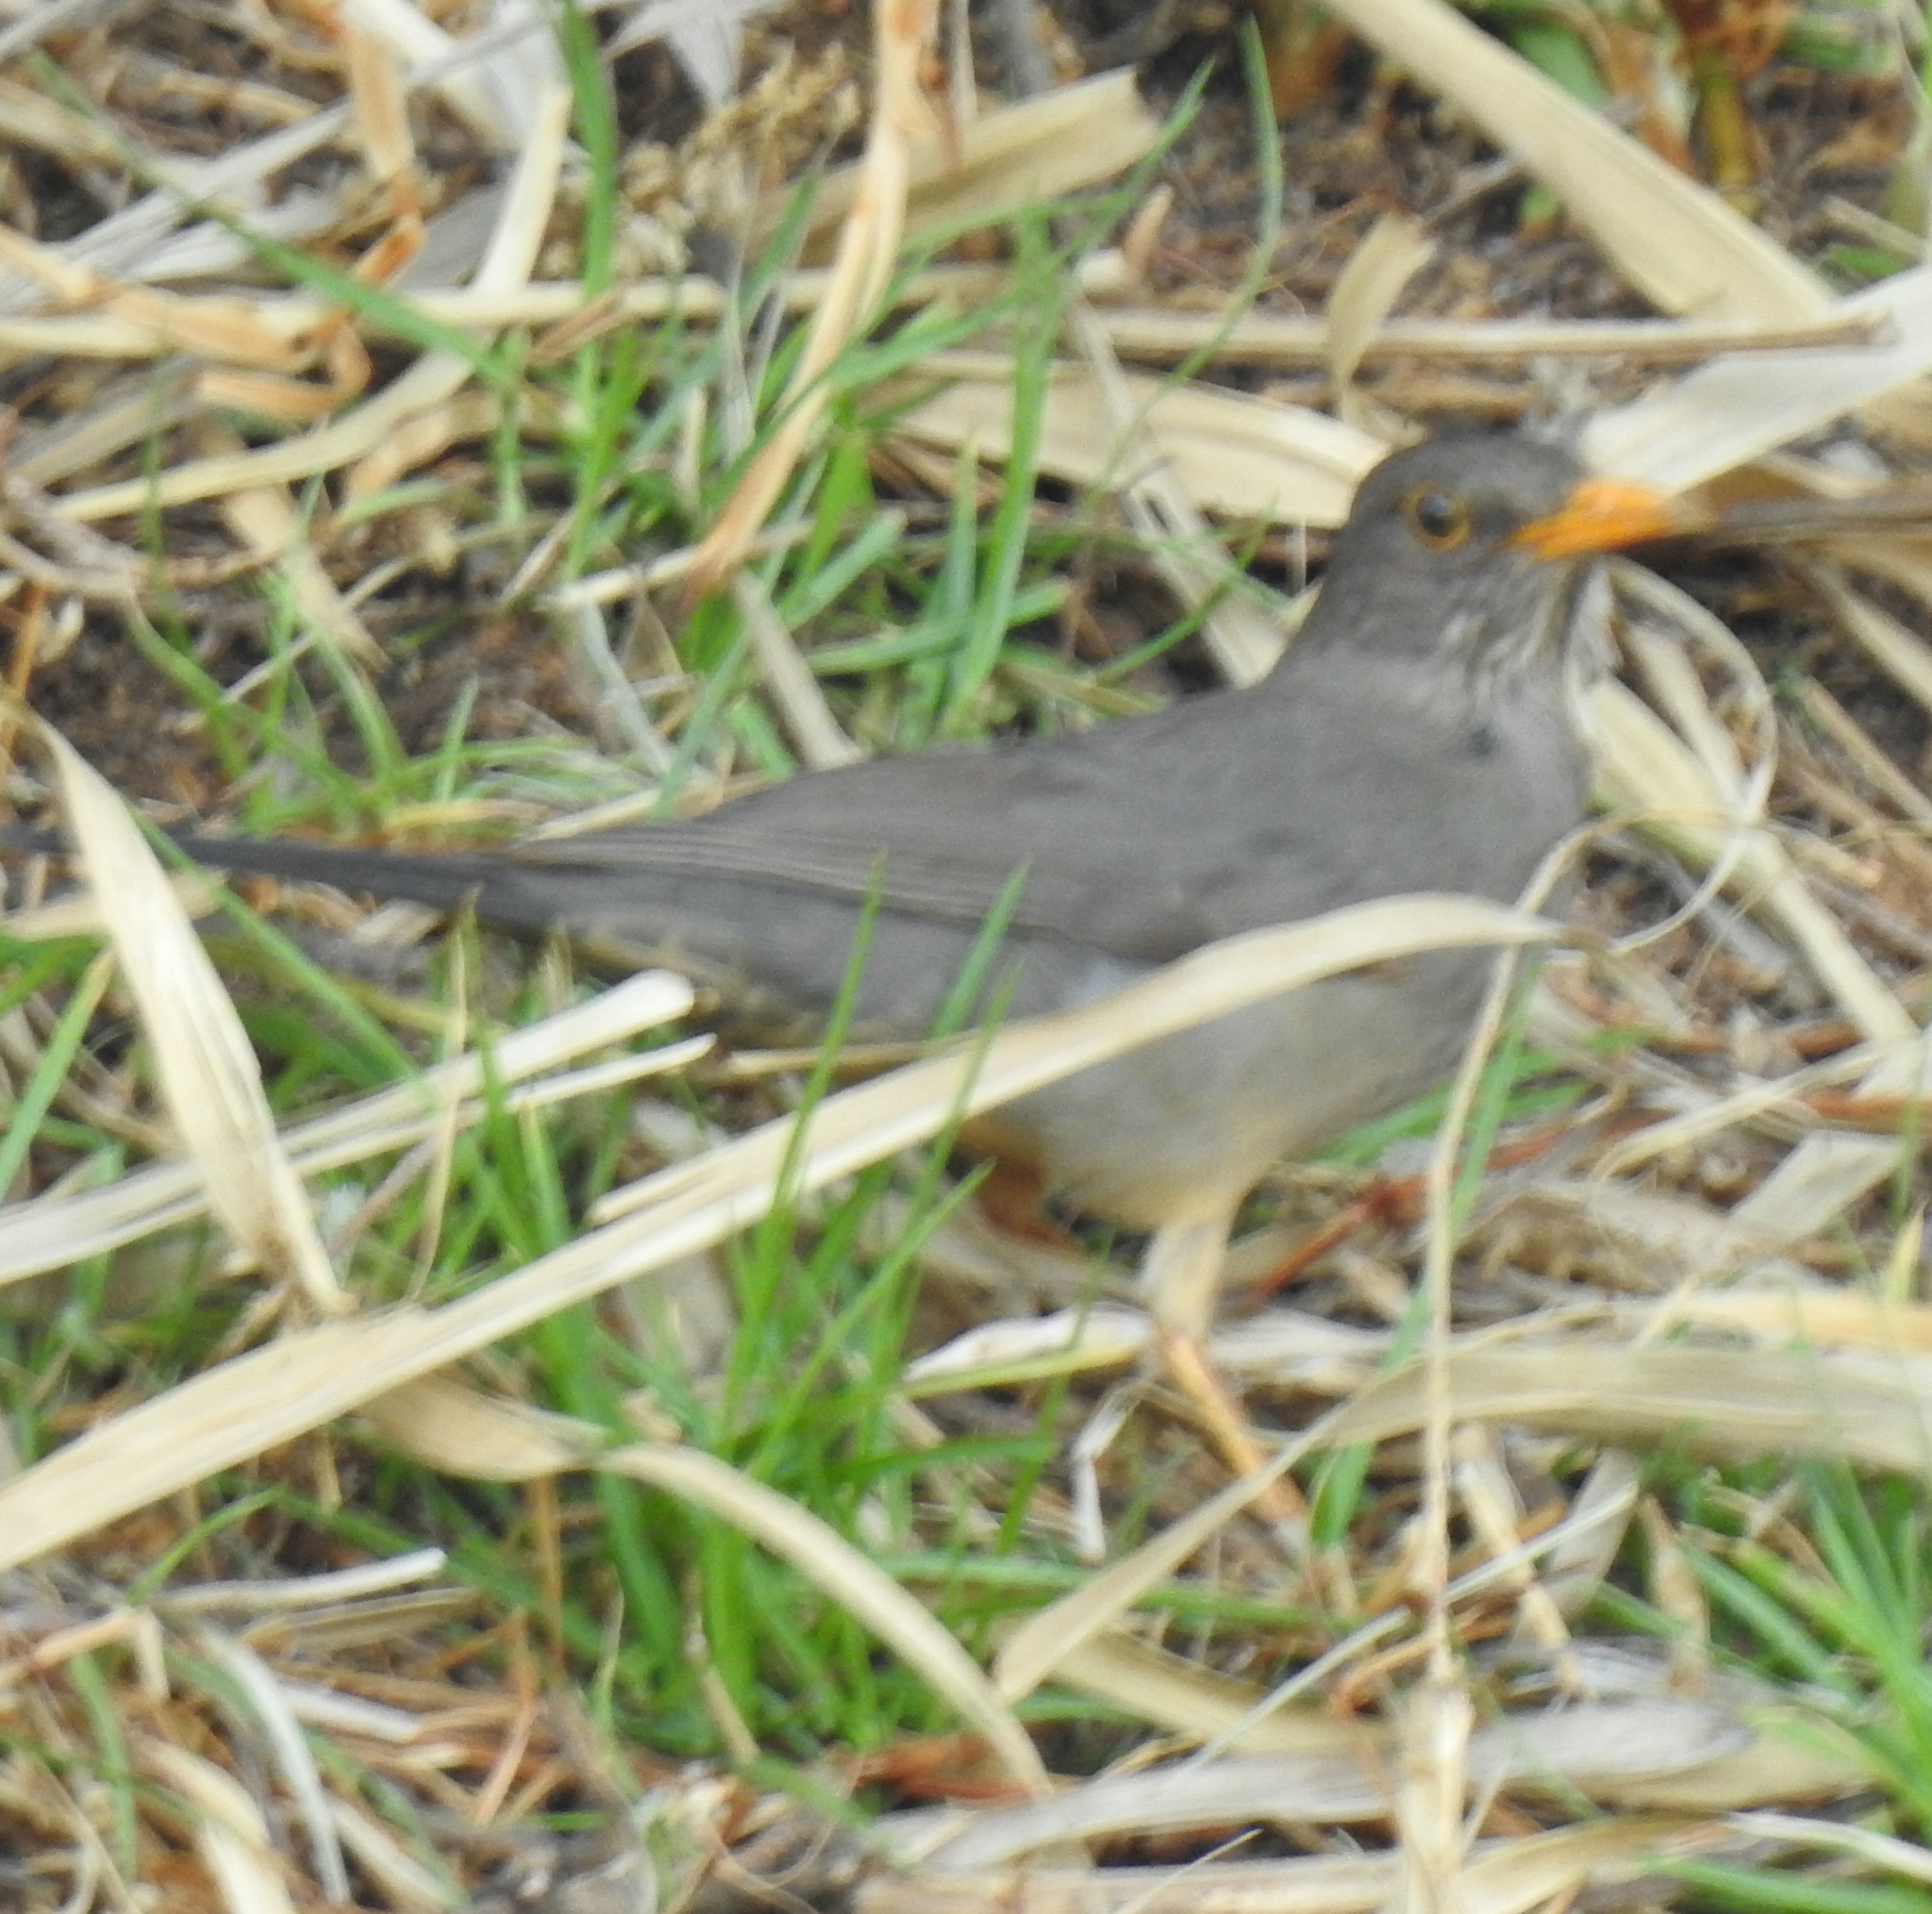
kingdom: Animalia
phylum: Chordata
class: Aves
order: Passeriformes
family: Turdidae
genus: Turdus
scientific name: Turdus smithi
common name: Karoo thrush
